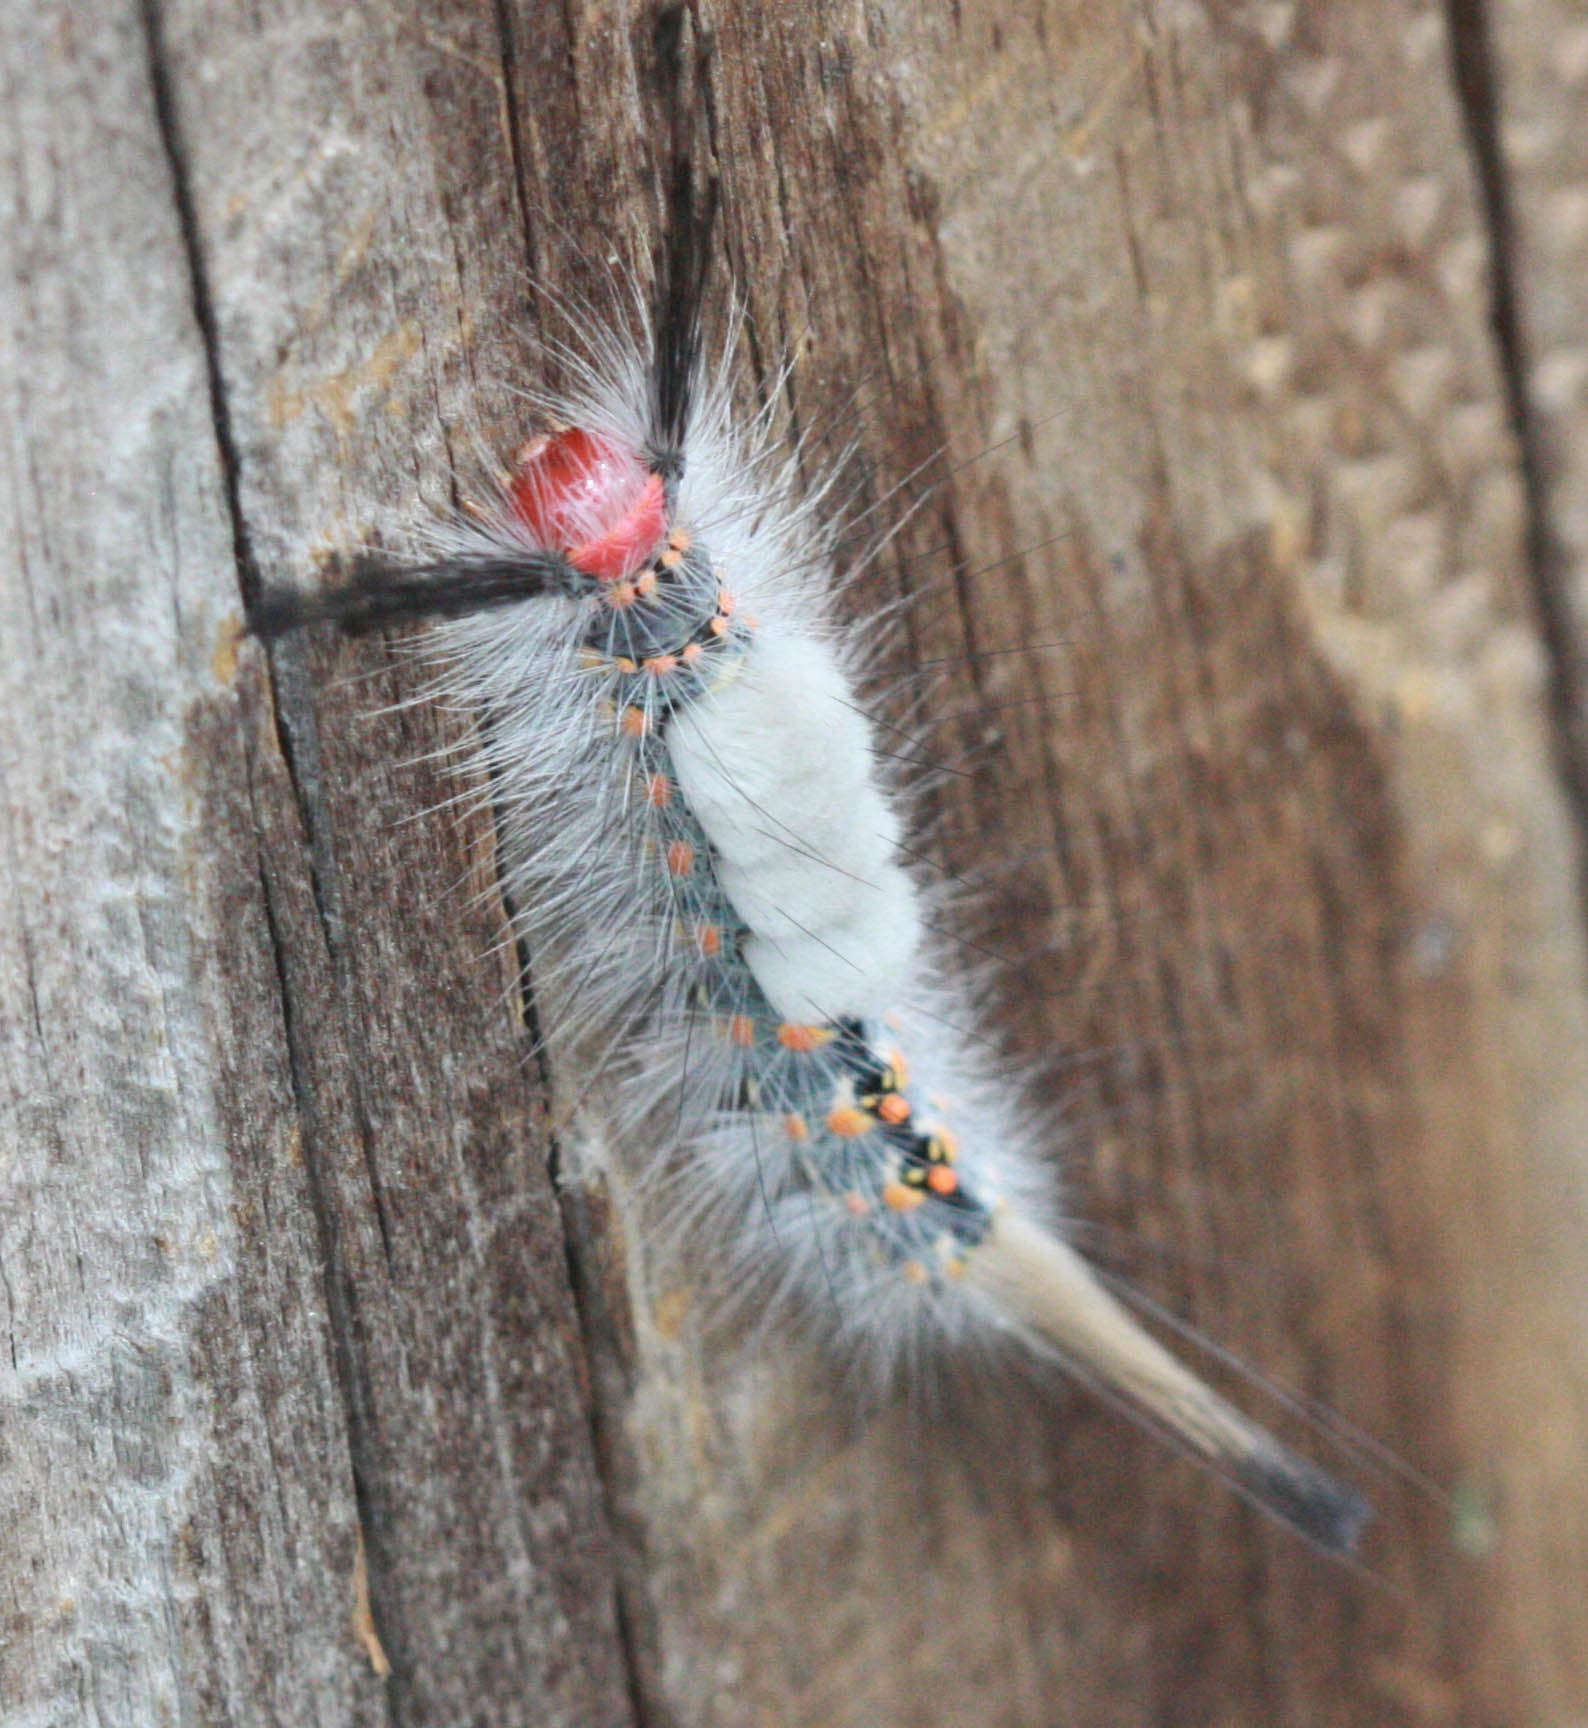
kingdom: Animalia
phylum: Arthropoda
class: Insecta
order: Lepidoptera
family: Erebidae
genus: Orgyia
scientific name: Orgyia detrita
